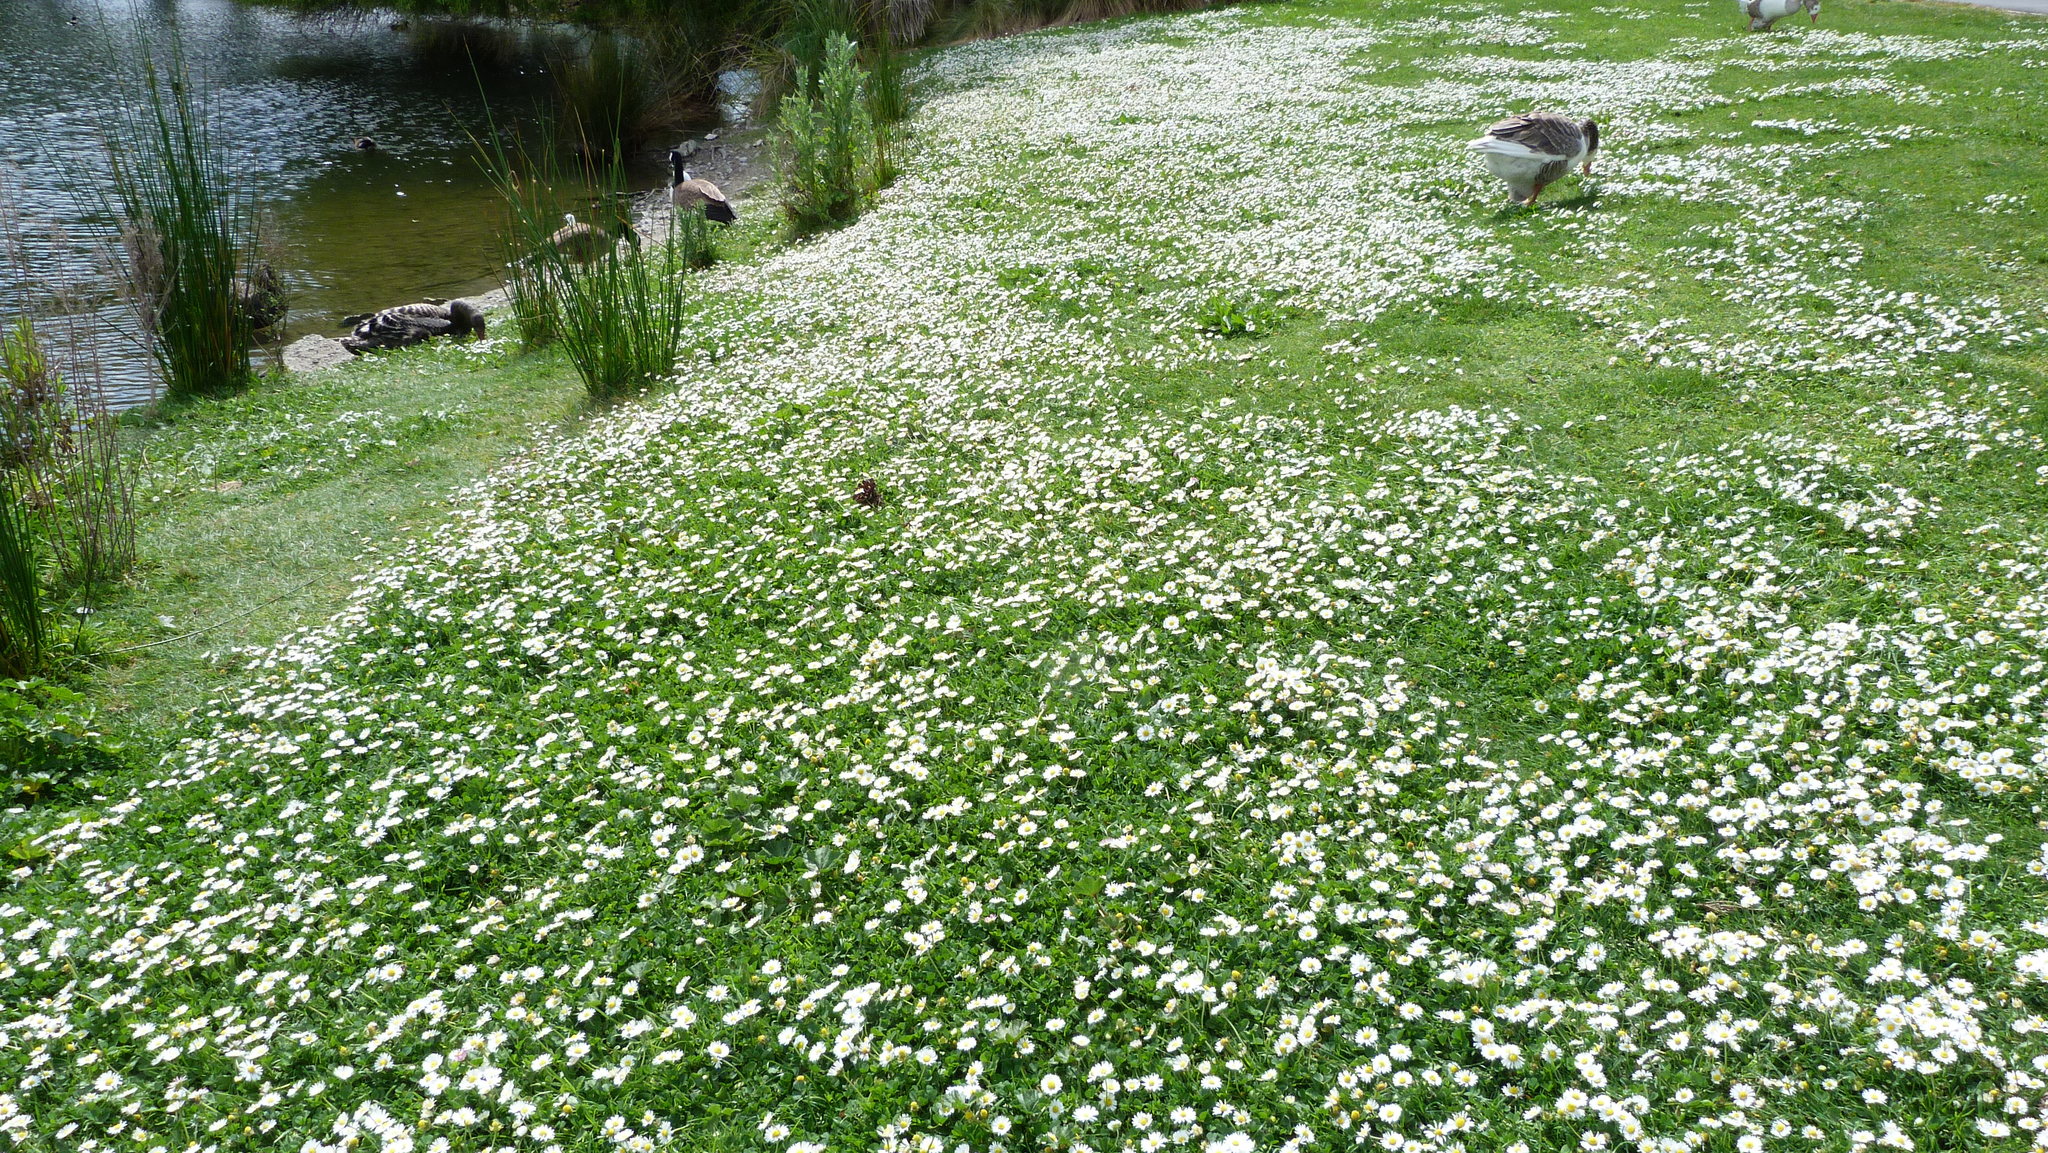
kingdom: Plantae
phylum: Tracheophyta
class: Magnoliopsida
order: Asterales
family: Asteraceae
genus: Bellis
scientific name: Bellis perennis
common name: Lawndaisy
